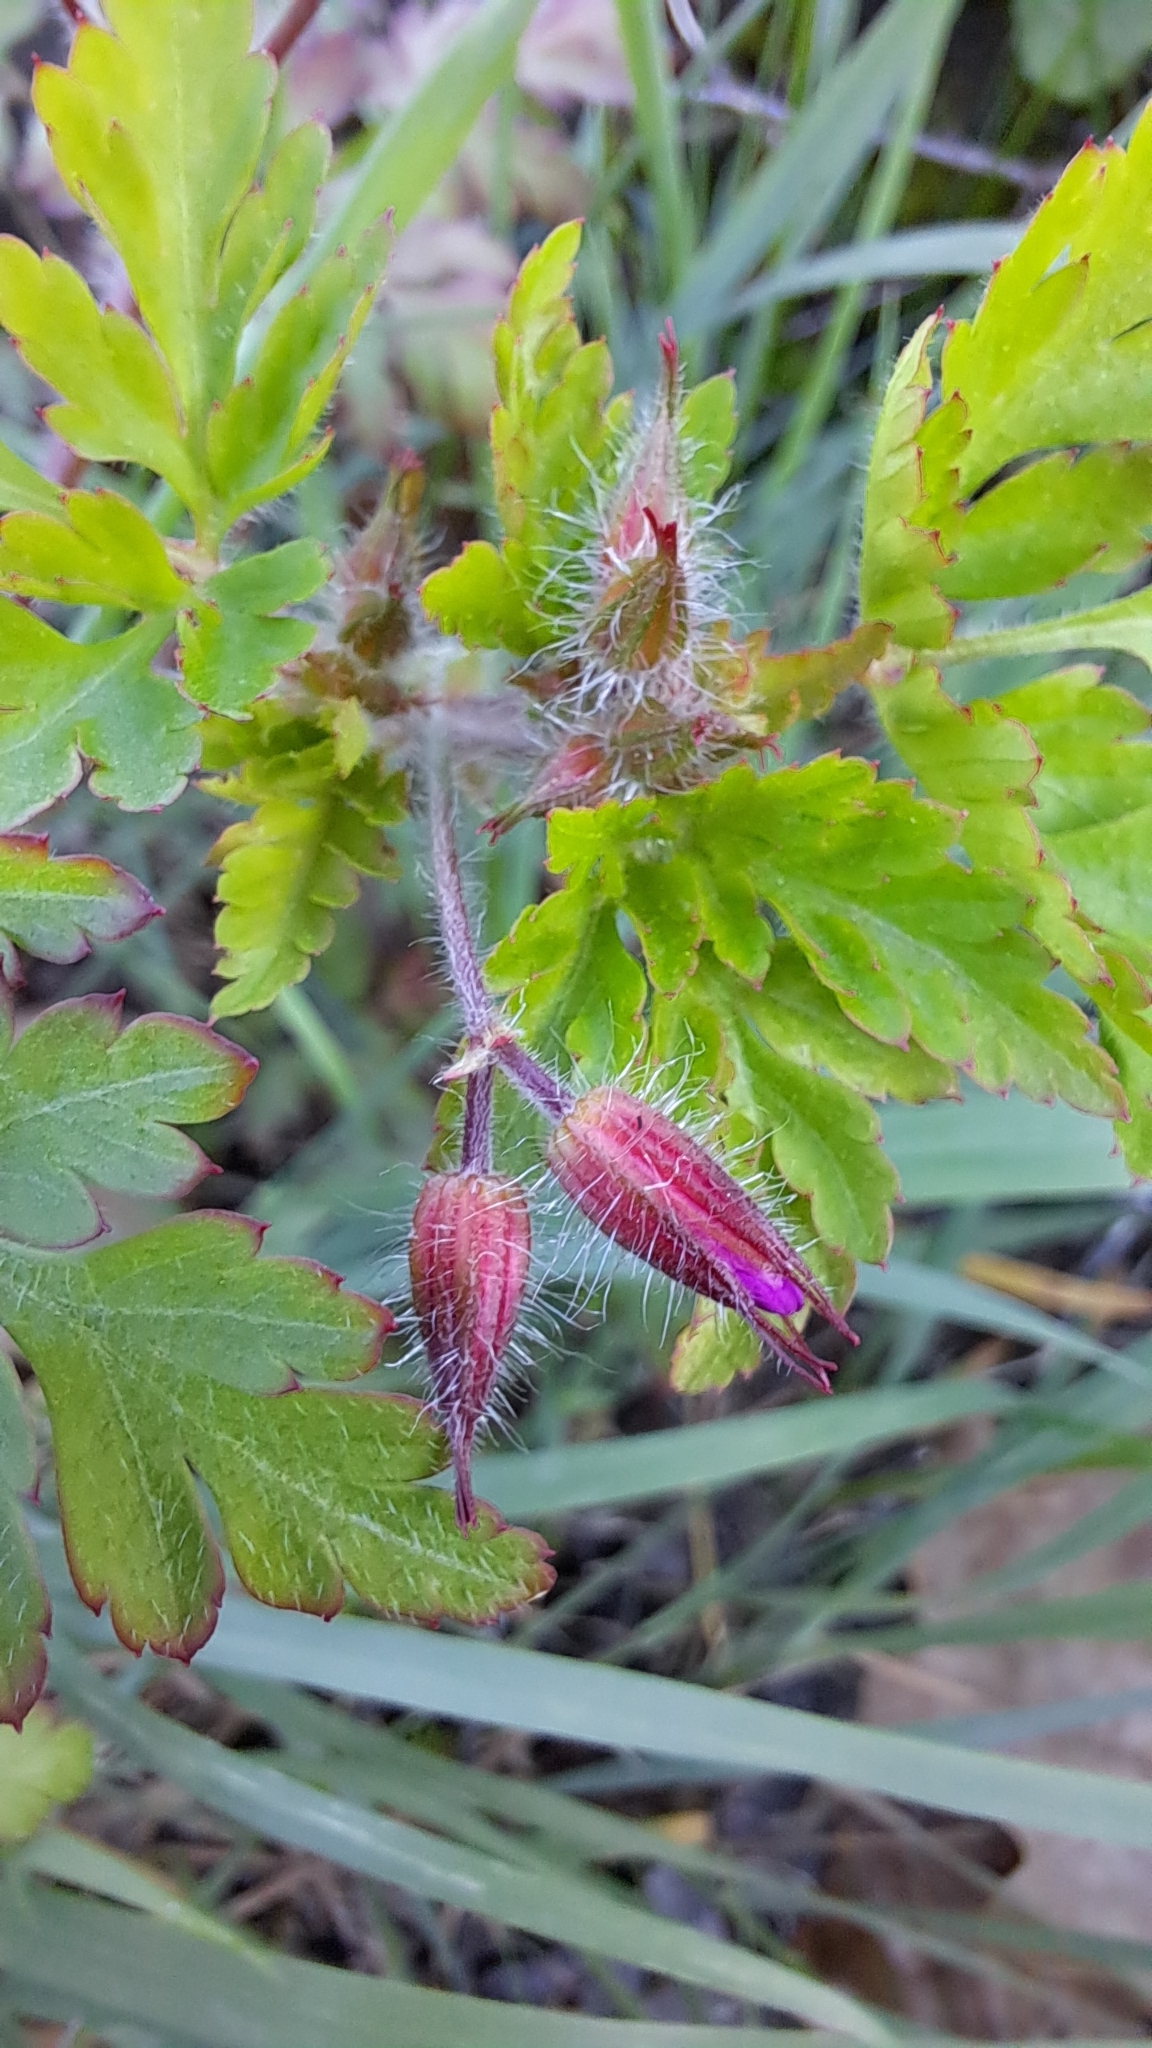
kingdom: Plantae
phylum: Tracheophyta
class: Magnoliopsida
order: Geraniales
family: Geraniaceae
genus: Geranium
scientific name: Geranium robertianum
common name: Herb-robert
